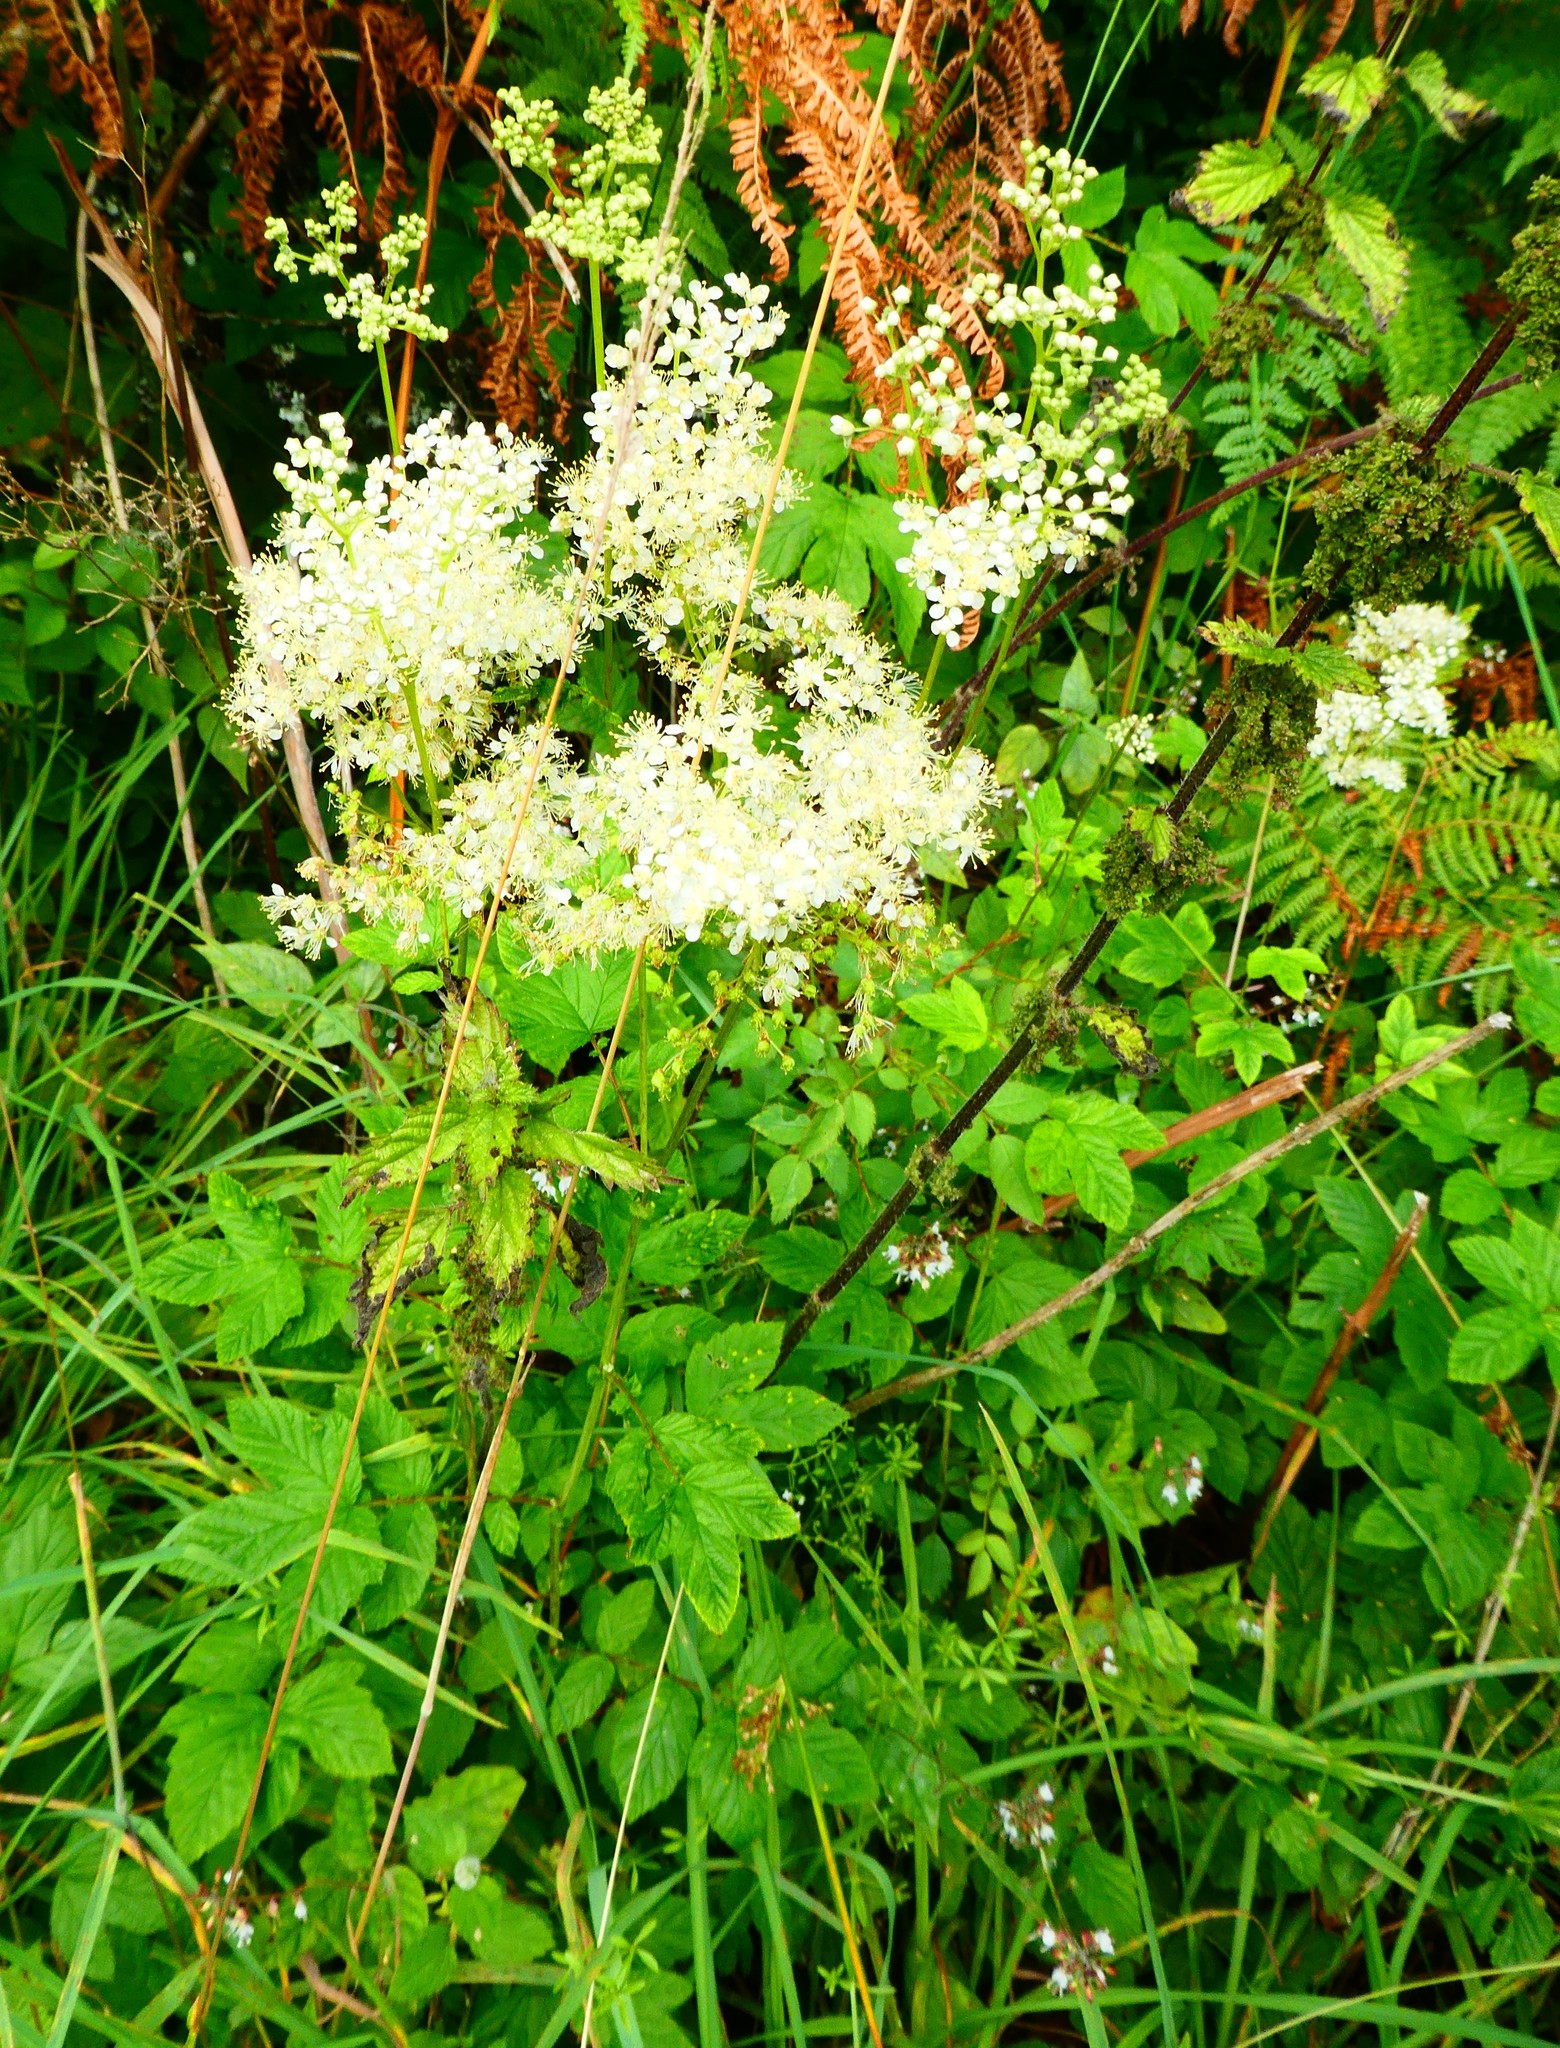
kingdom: Plantae
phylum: Tracheophyta
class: Magnoliopsida
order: Rosales
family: Rosaceae
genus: Filipendula
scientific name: Filipendula ulmaria
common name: Meadowsweet
